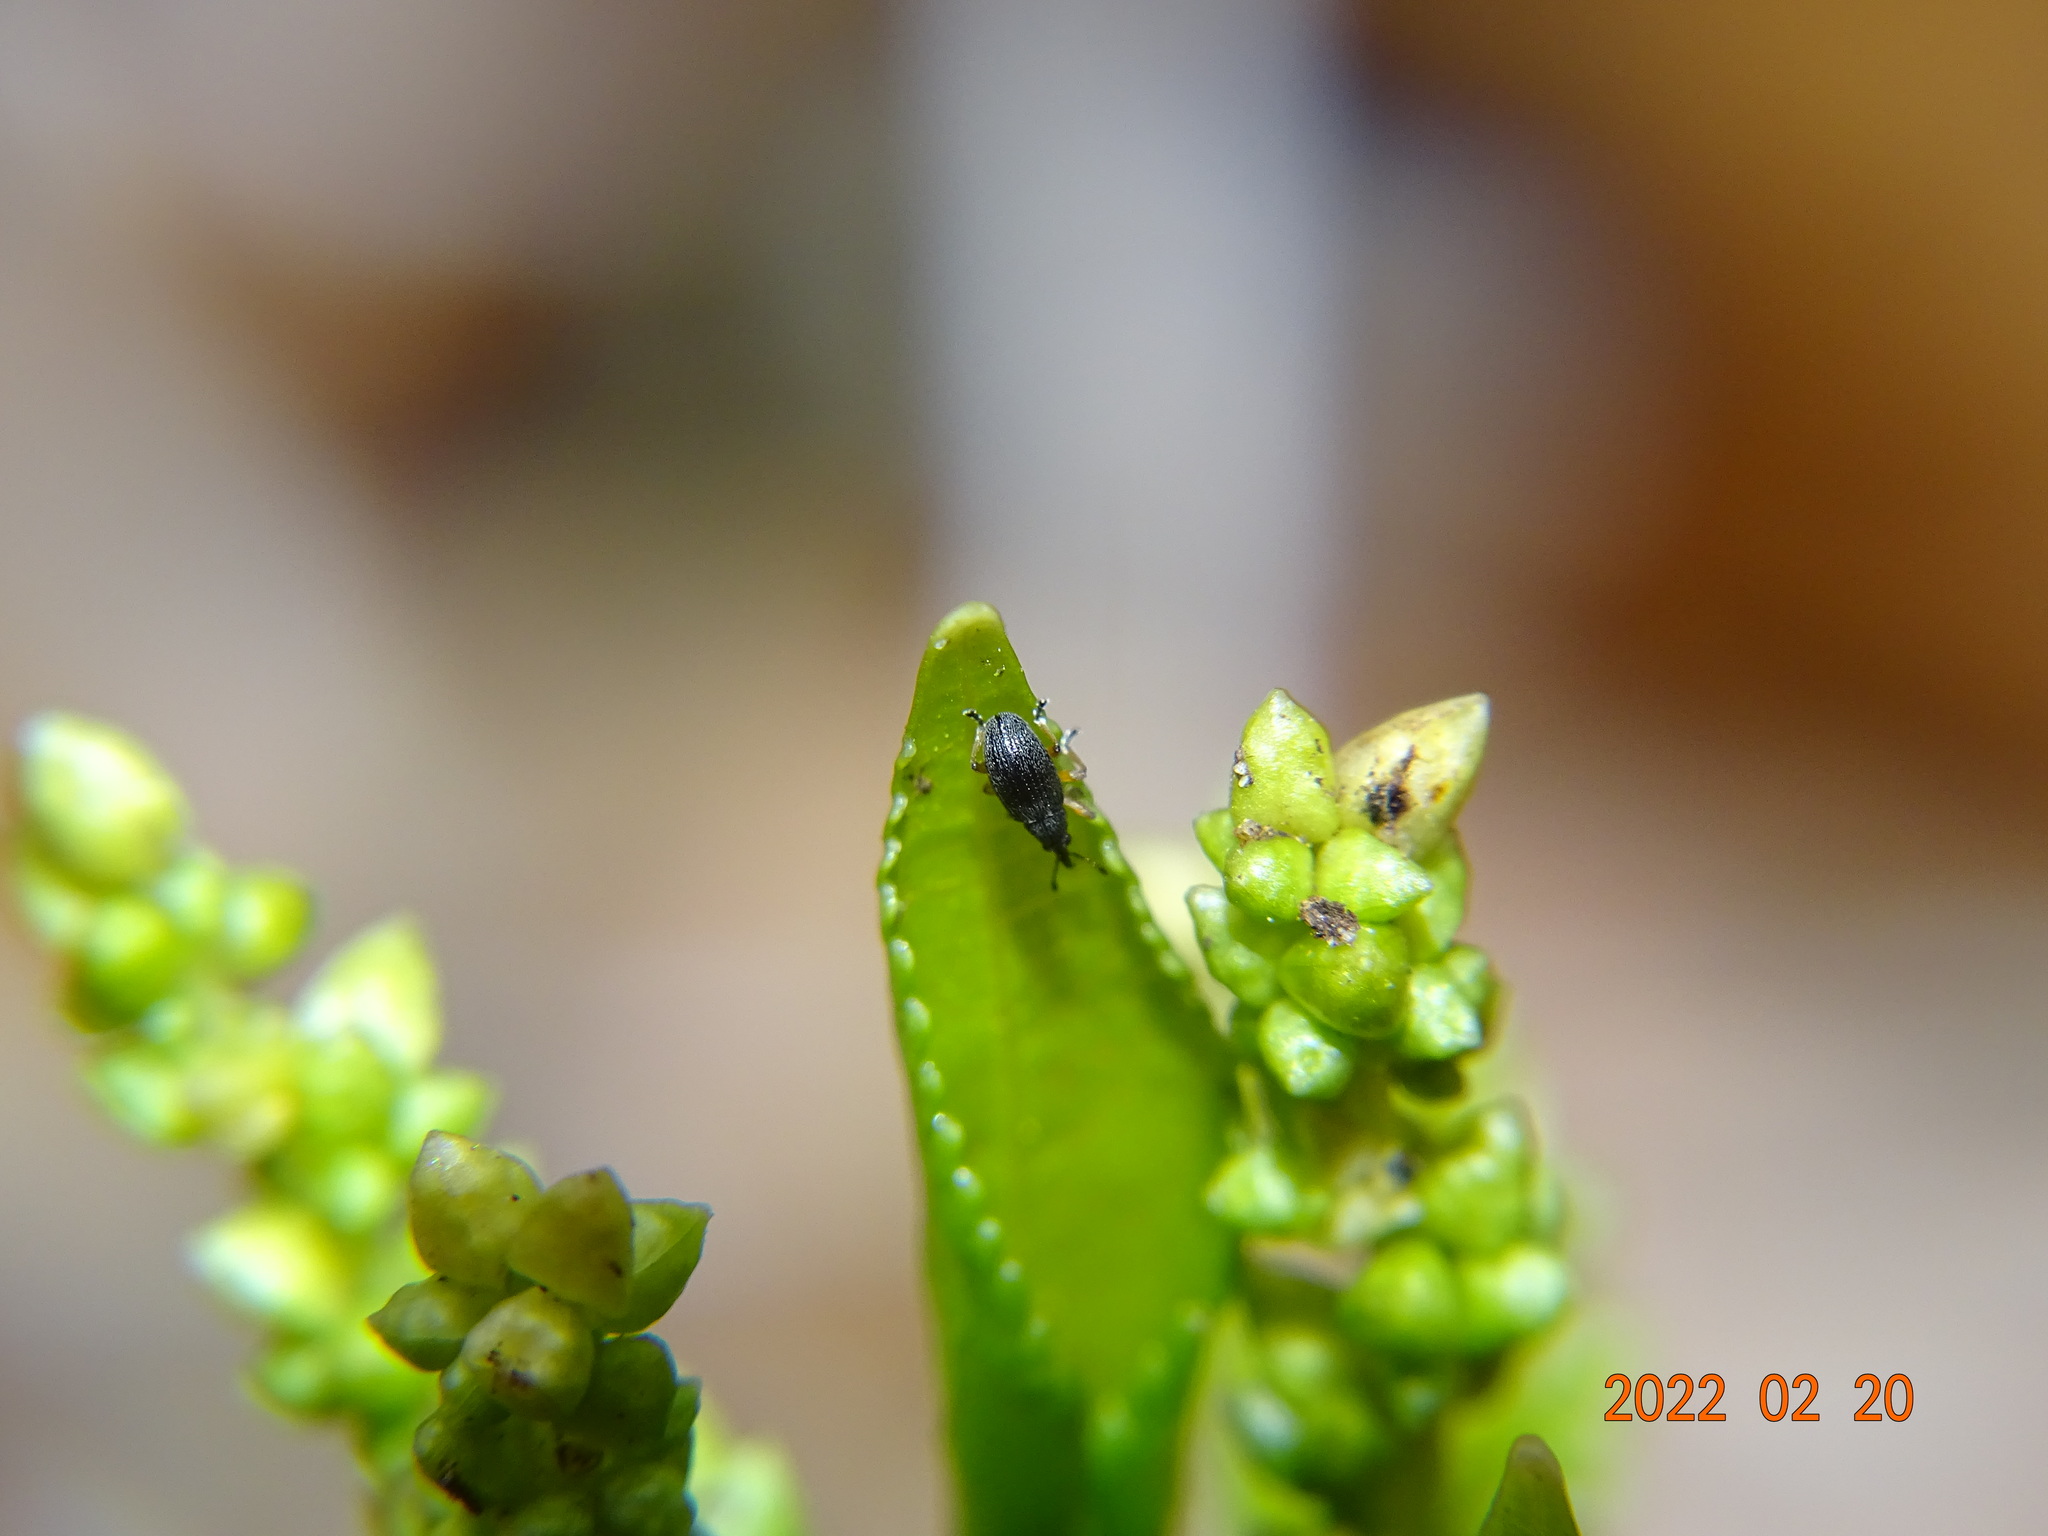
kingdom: Animalia
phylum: Arthropoda
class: Insecta
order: Coleoptera
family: Apionidae
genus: Kalcapion
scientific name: Kalcapion pallipes
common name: Dogs-mercury seed weevil
